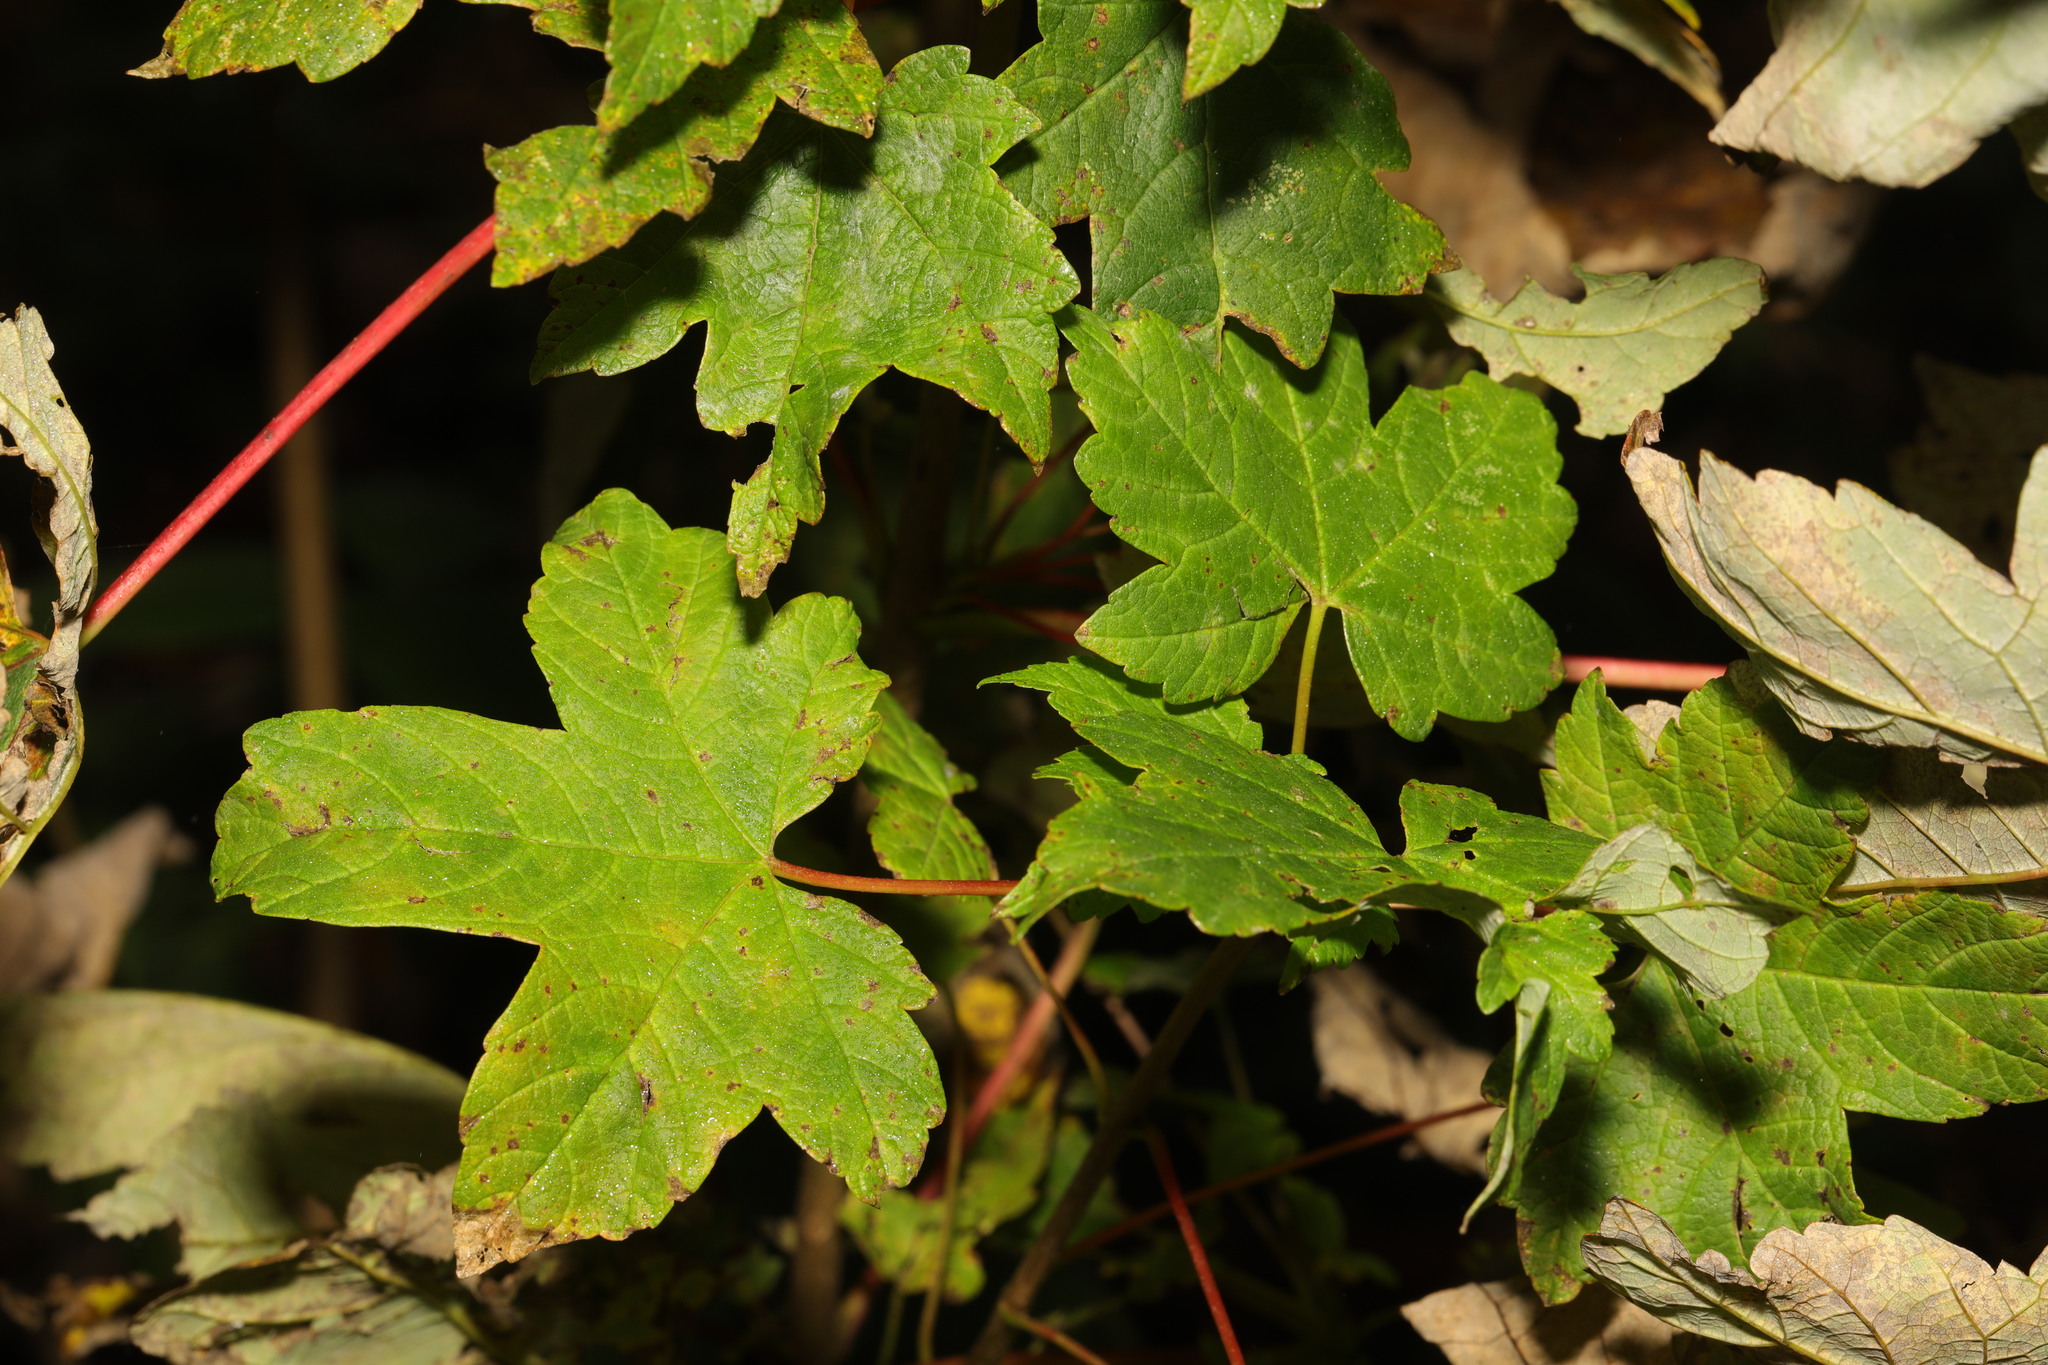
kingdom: Plantae
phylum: Tracheophyta
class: Magnoliopsida
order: Sapindales
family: Sapindaceae
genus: Acer
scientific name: Acer pseudoplatanus
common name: Sycamore
